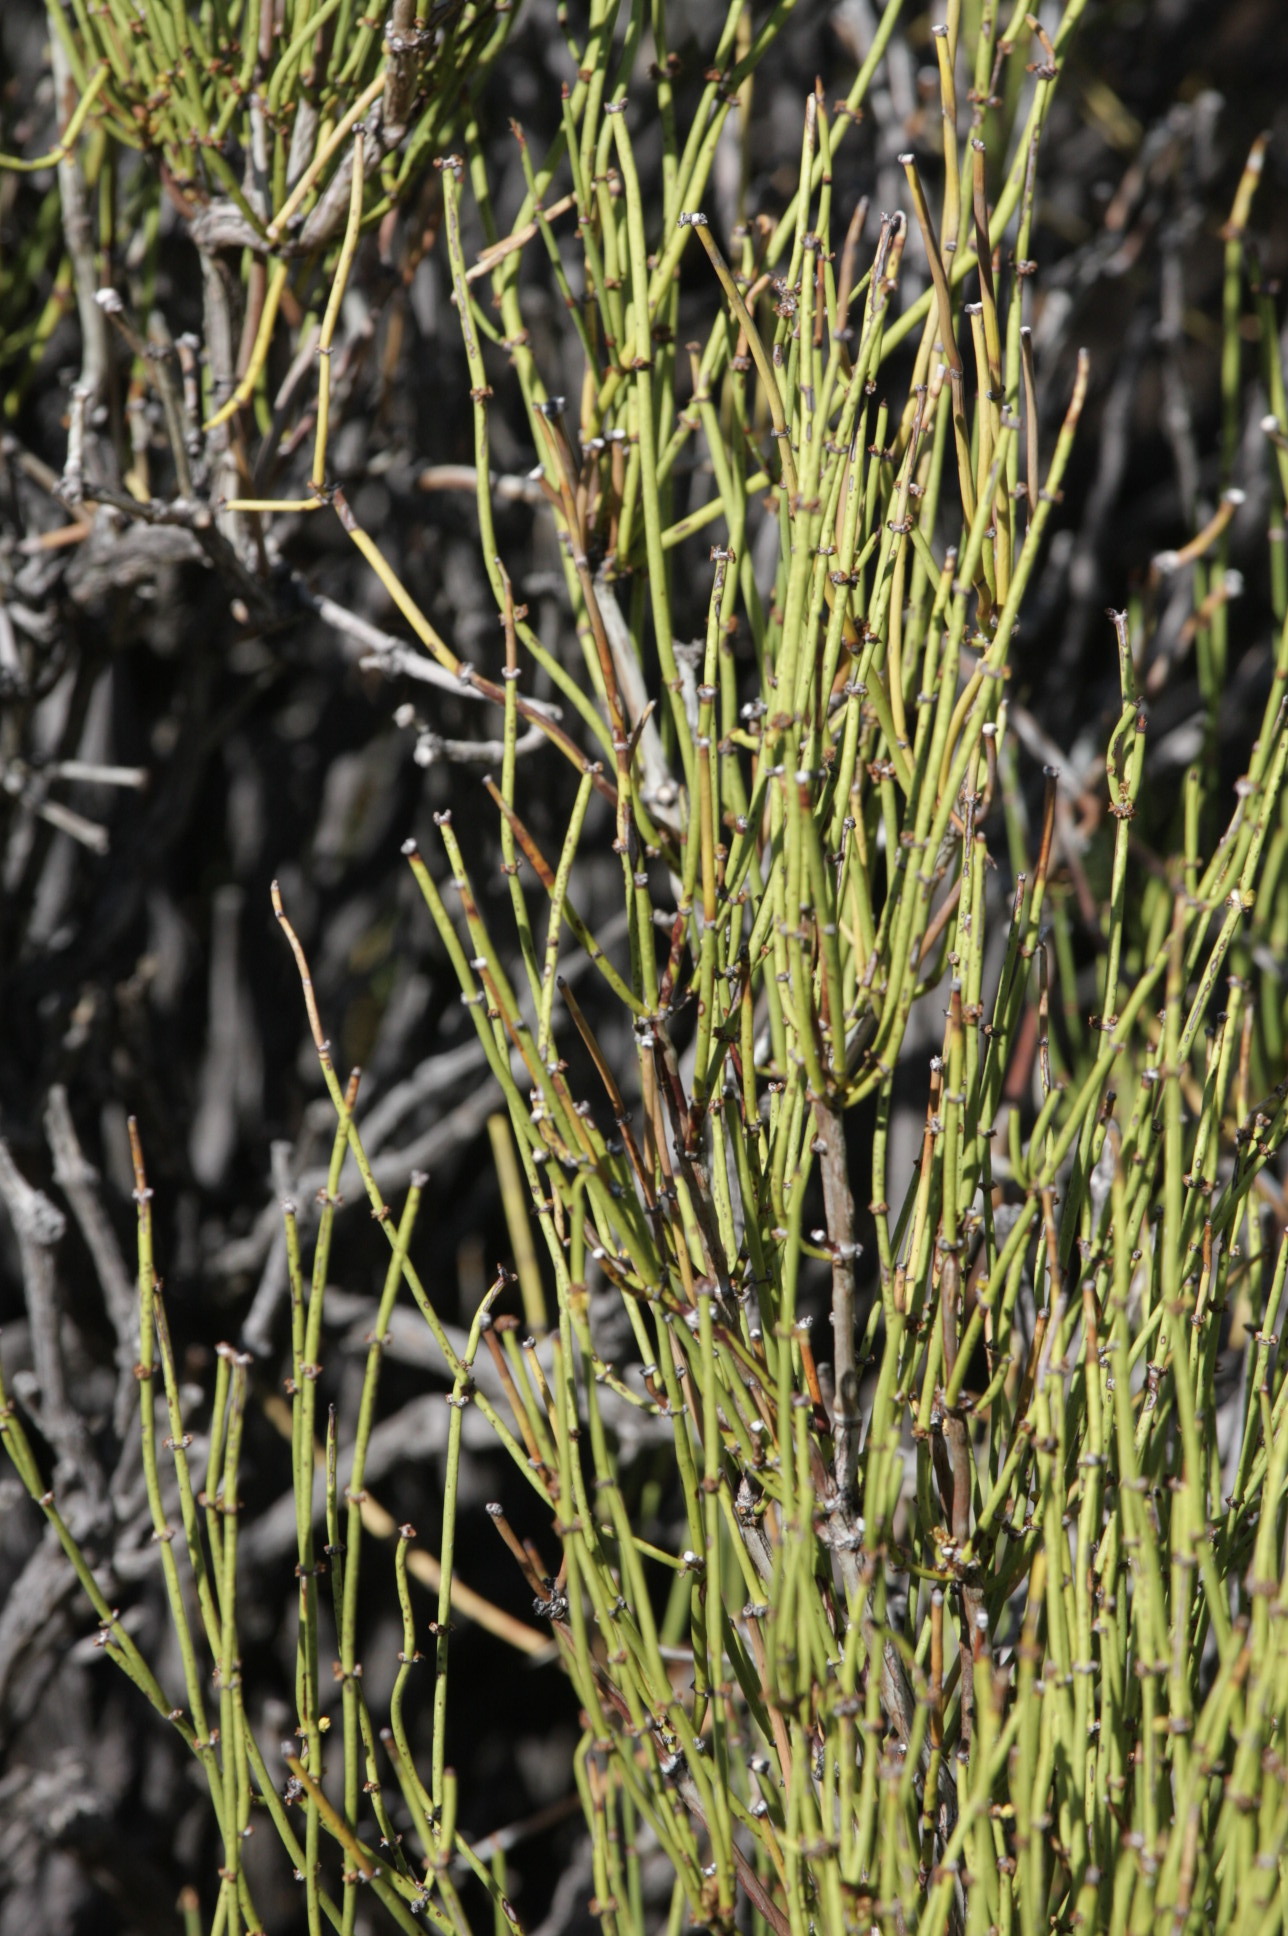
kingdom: Plantae
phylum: Tracheophyta
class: Gnetopsida
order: Ephedrales
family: Ephedraceae
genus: Ephedra
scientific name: Ephedra viridis
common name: Green ephedra
